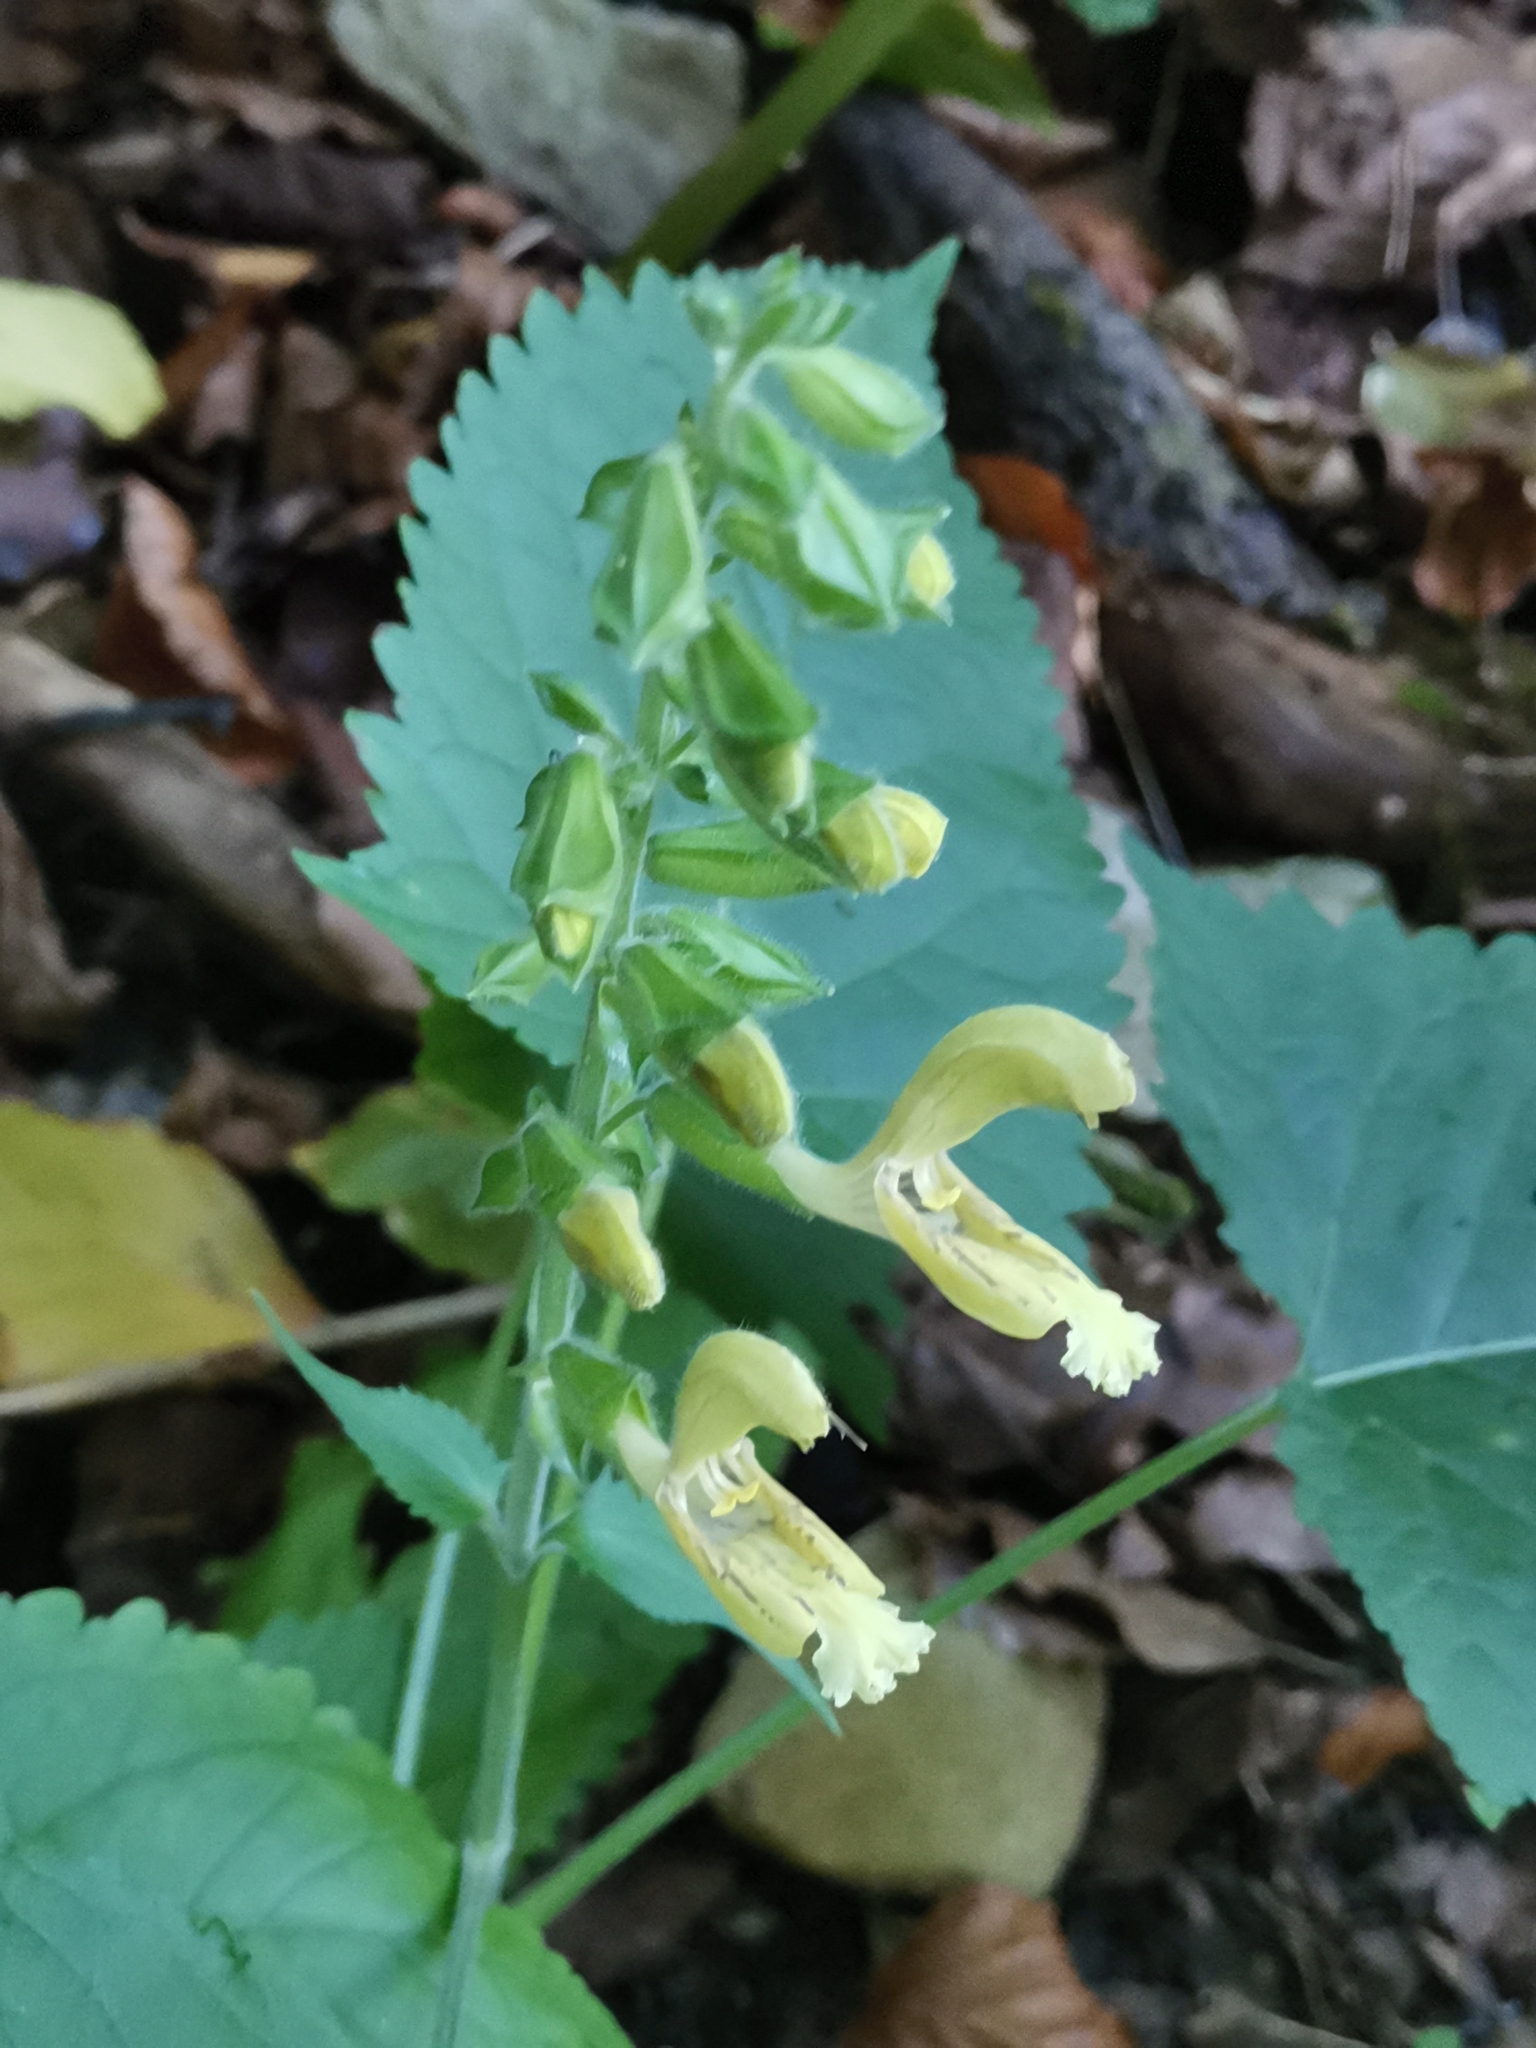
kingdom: Plantae
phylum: Tracheophyta
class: Magnoliopsida
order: Lamiales
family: Lamiaceae
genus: Salvia
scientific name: Salvia glutinosa
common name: Sticky clary
